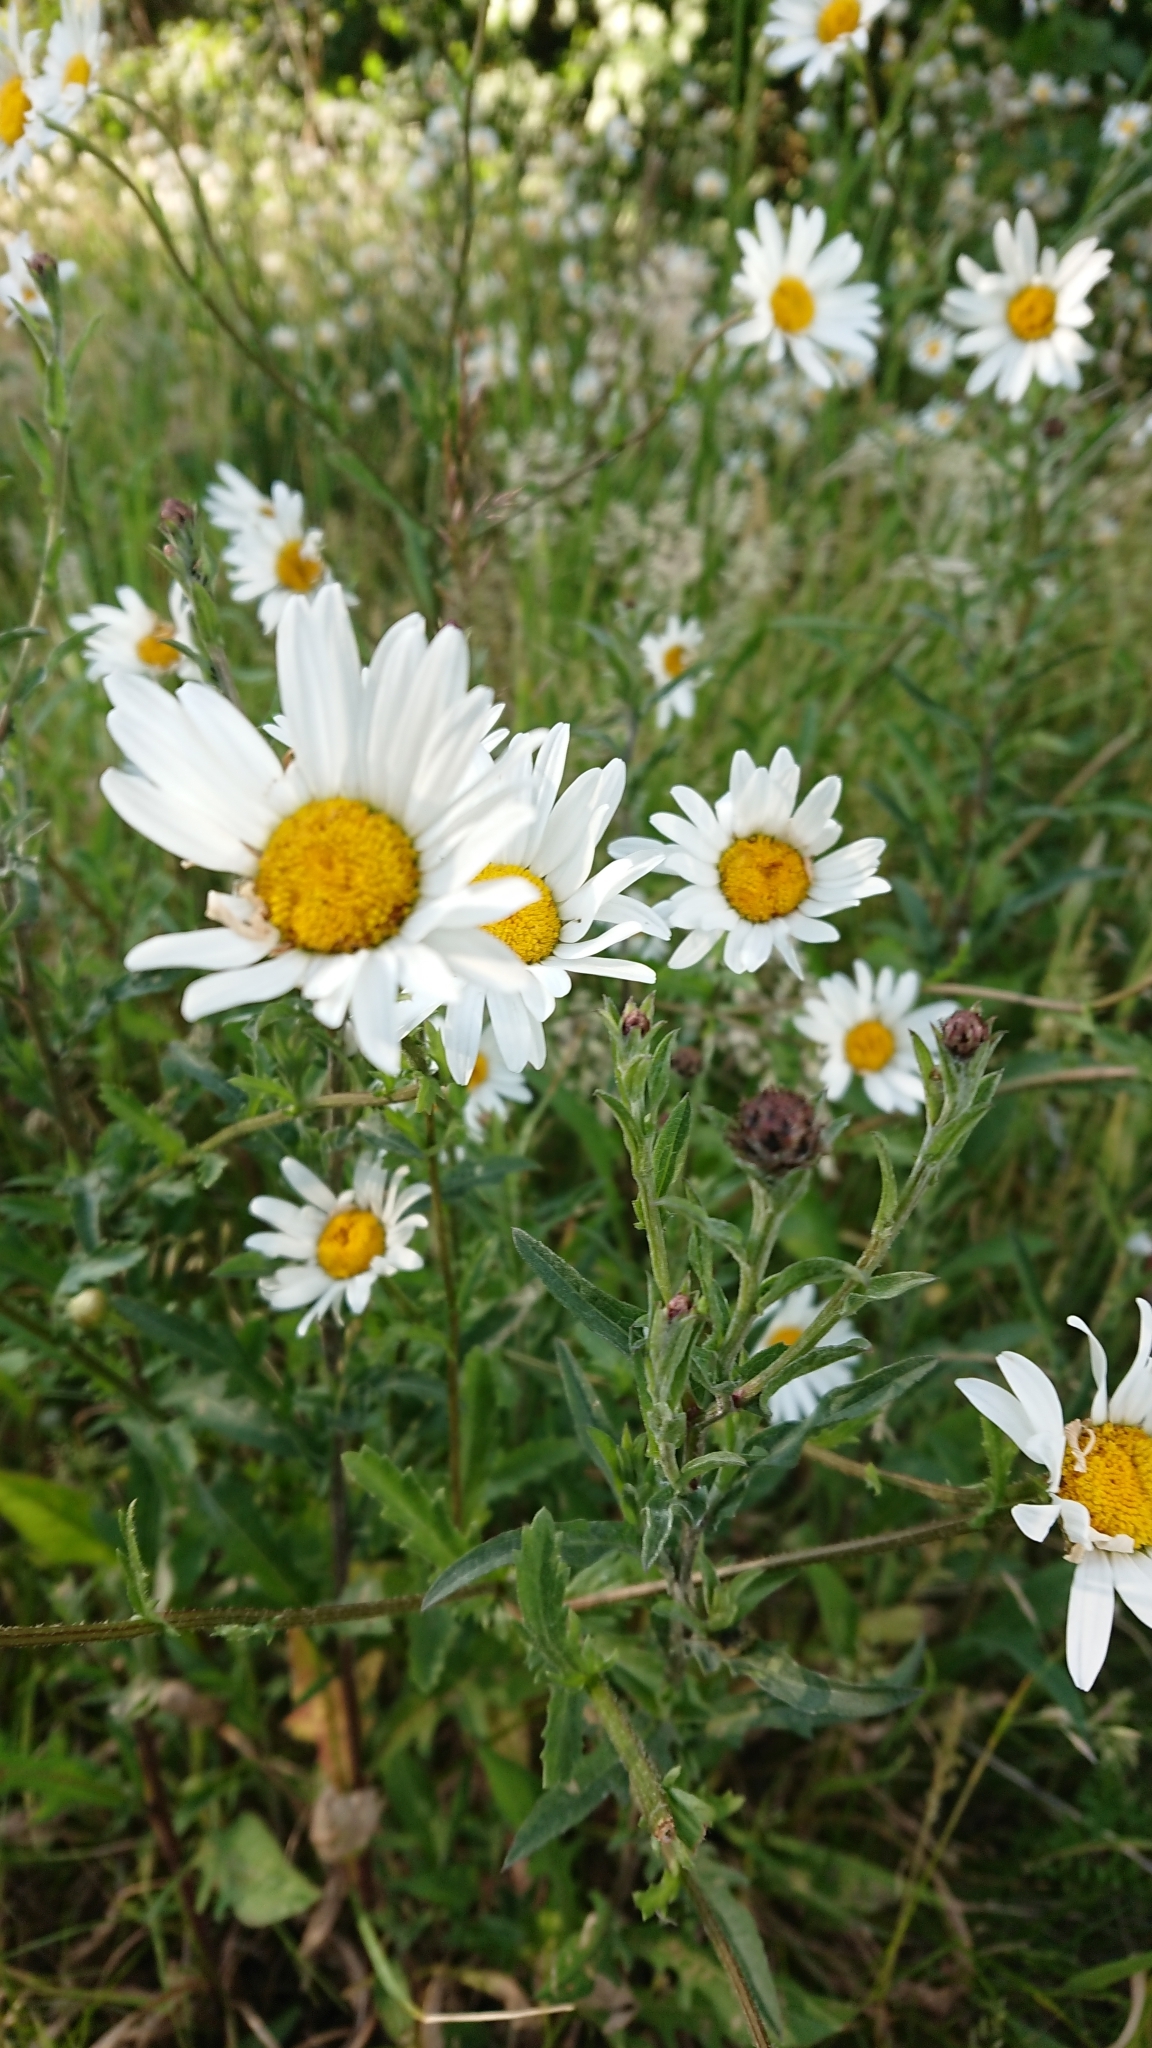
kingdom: Plantae
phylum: Tracheophyta
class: Magnoliopsida
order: Asterales
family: Asteraceae
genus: Leucanthemum
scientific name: Leucanthemum vulgare
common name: Oxeye daisy
